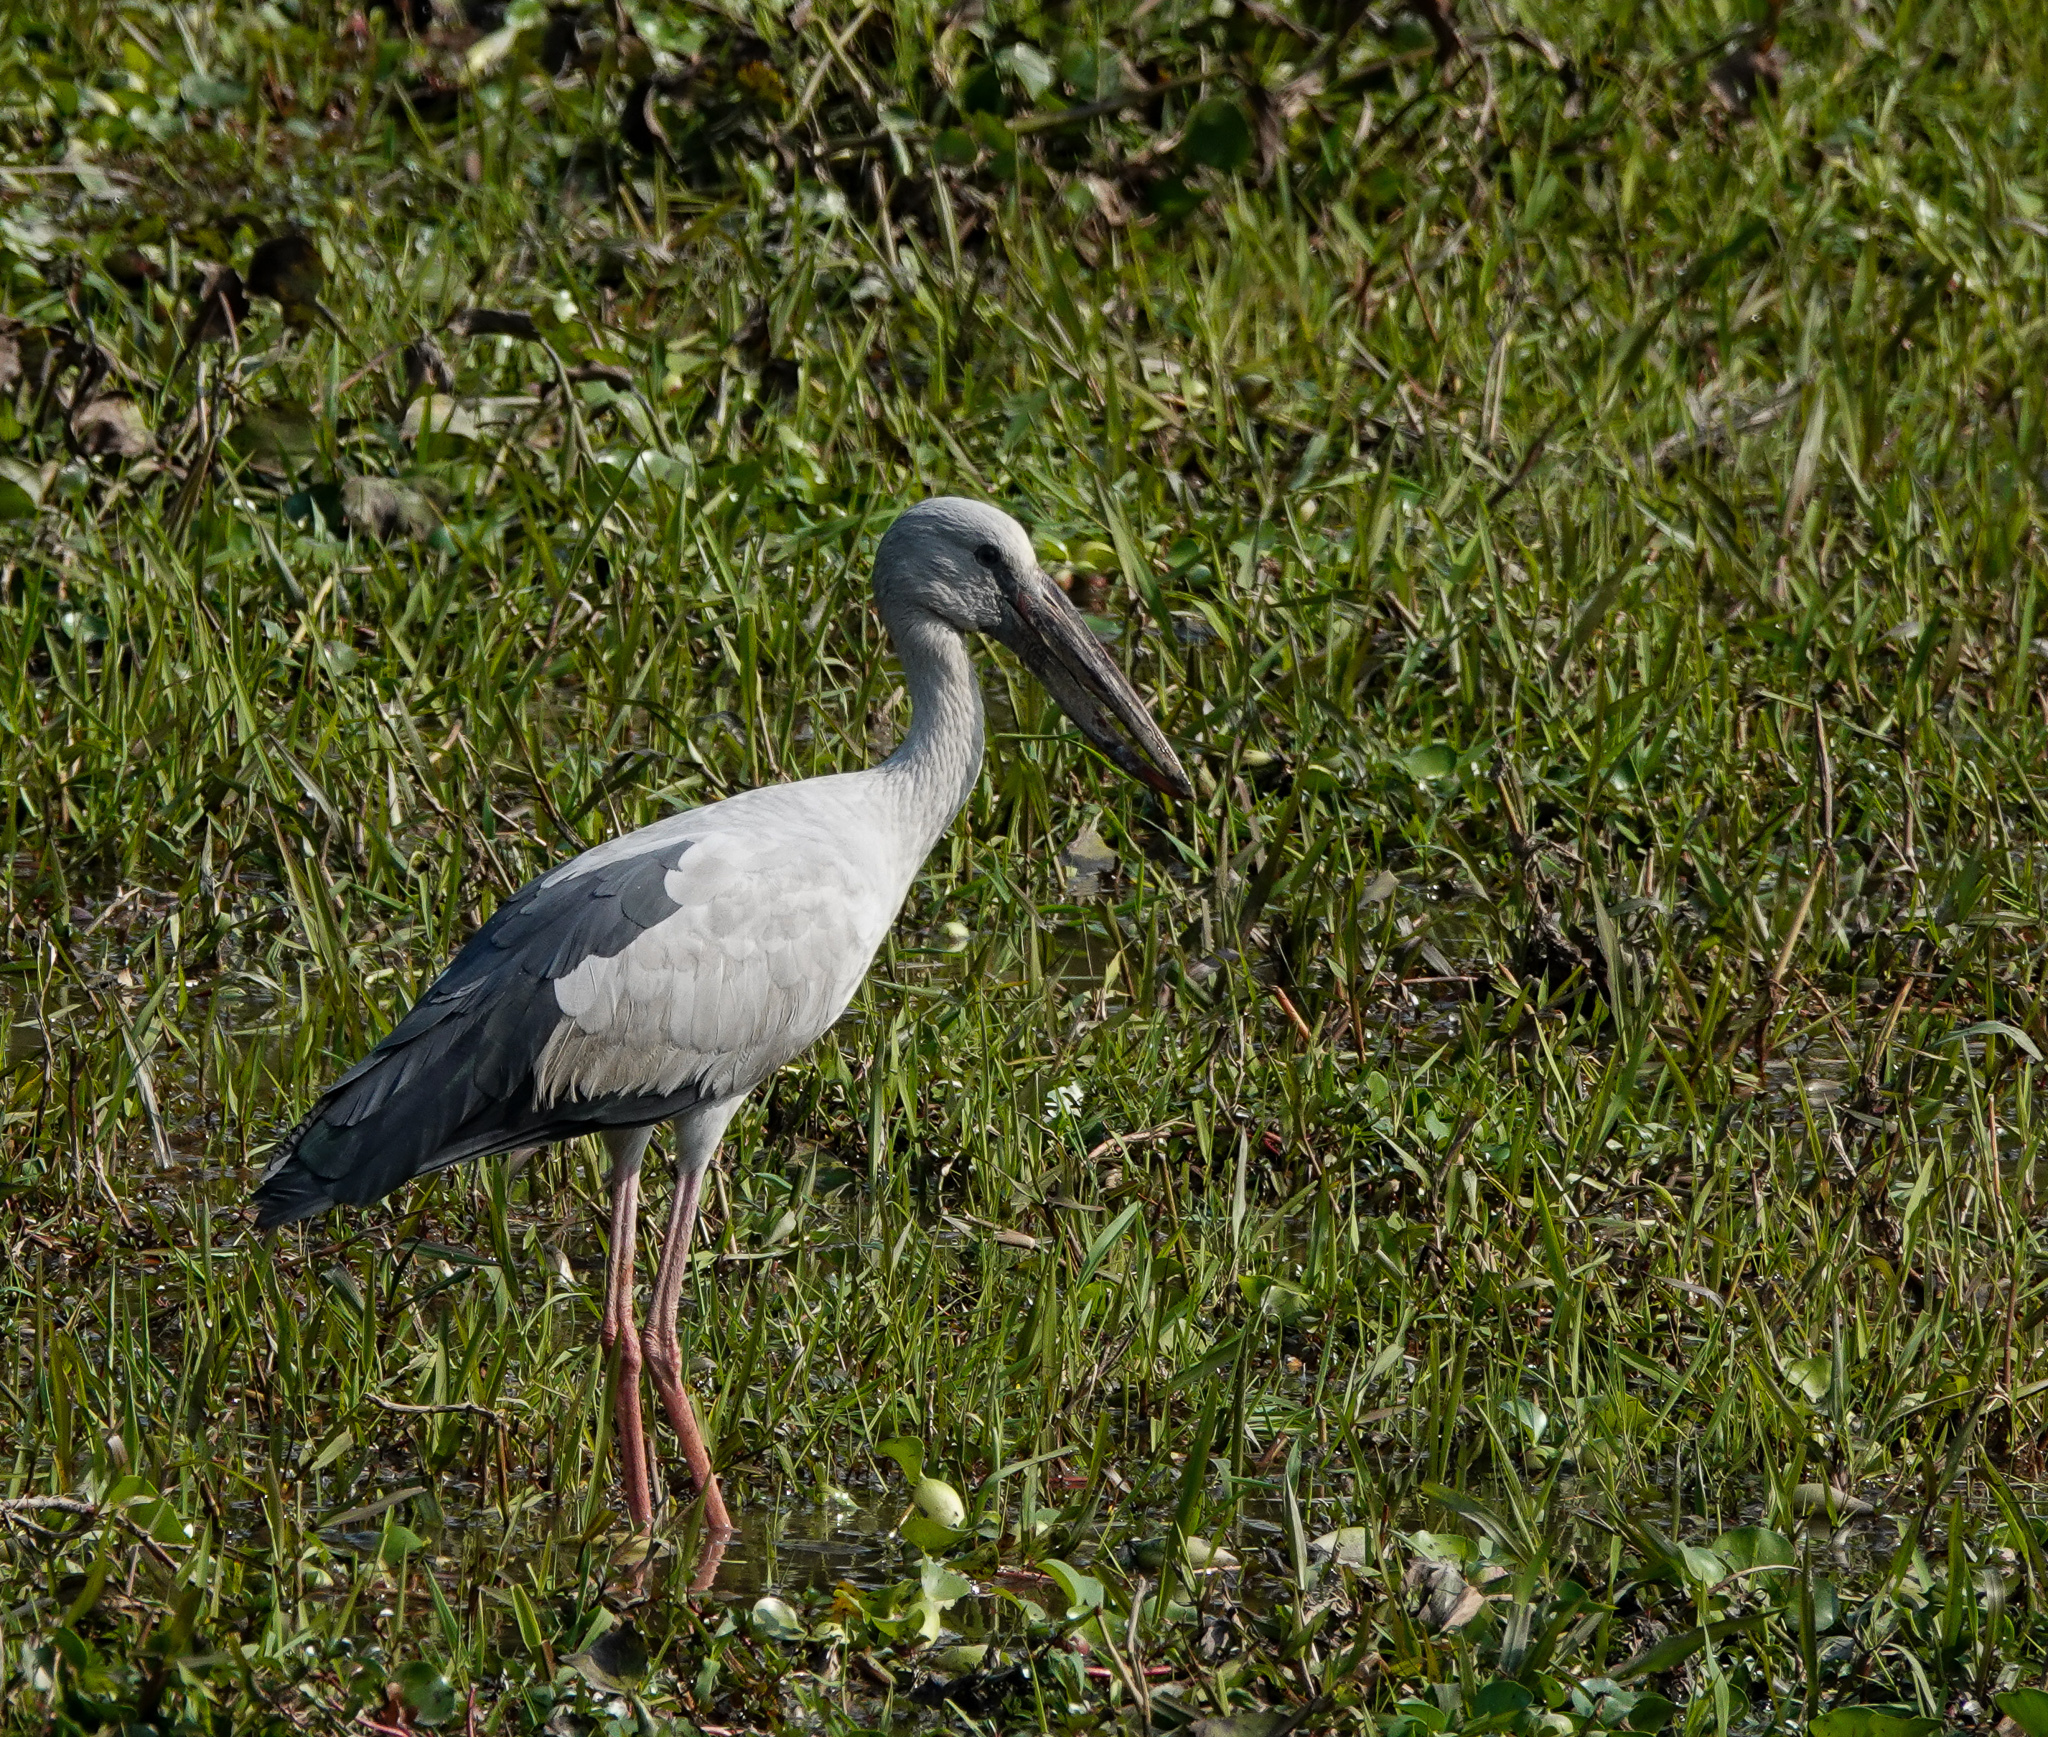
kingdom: Animalia
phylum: Chordata
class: Aves
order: Ciconiiformes
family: Ciconiidae
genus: Anastomus
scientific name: Anastomus oscitans
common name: Asian openbill
